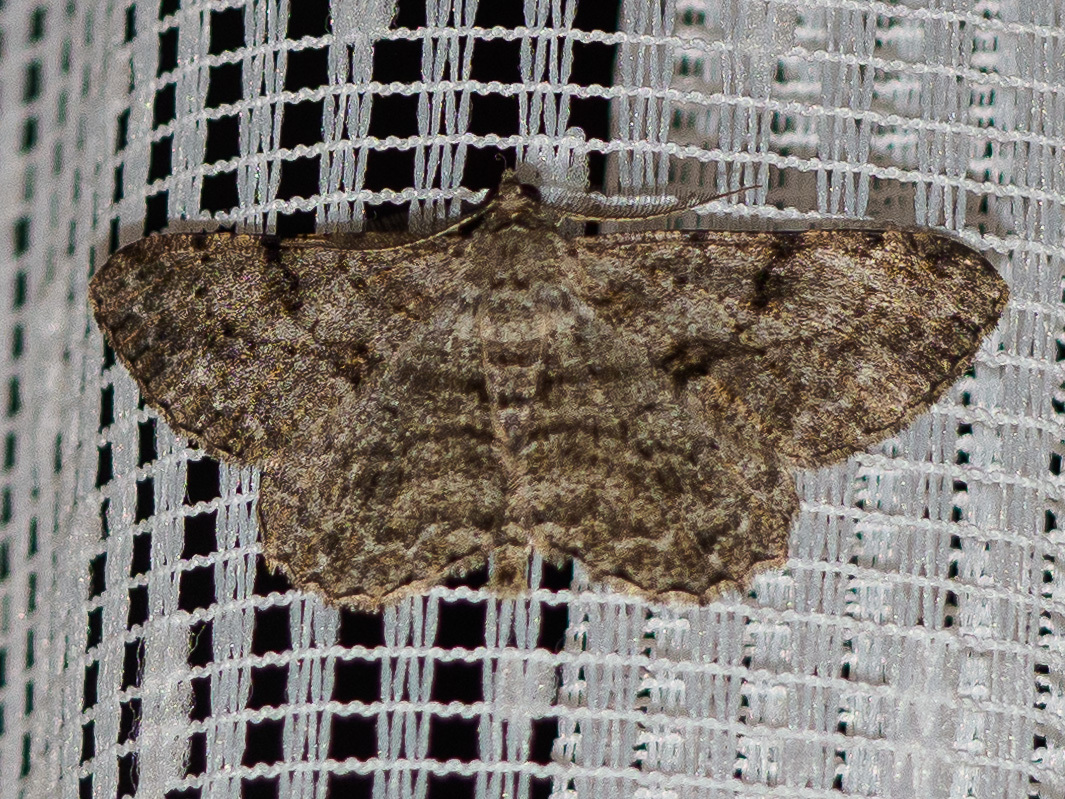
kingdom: Animalia
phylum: Arthropoda
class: Insecta
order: Lepidoptera
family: Geometridae
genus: Peribatodes
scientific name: Peribatodes rhomboidaria
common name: Willow beauty
